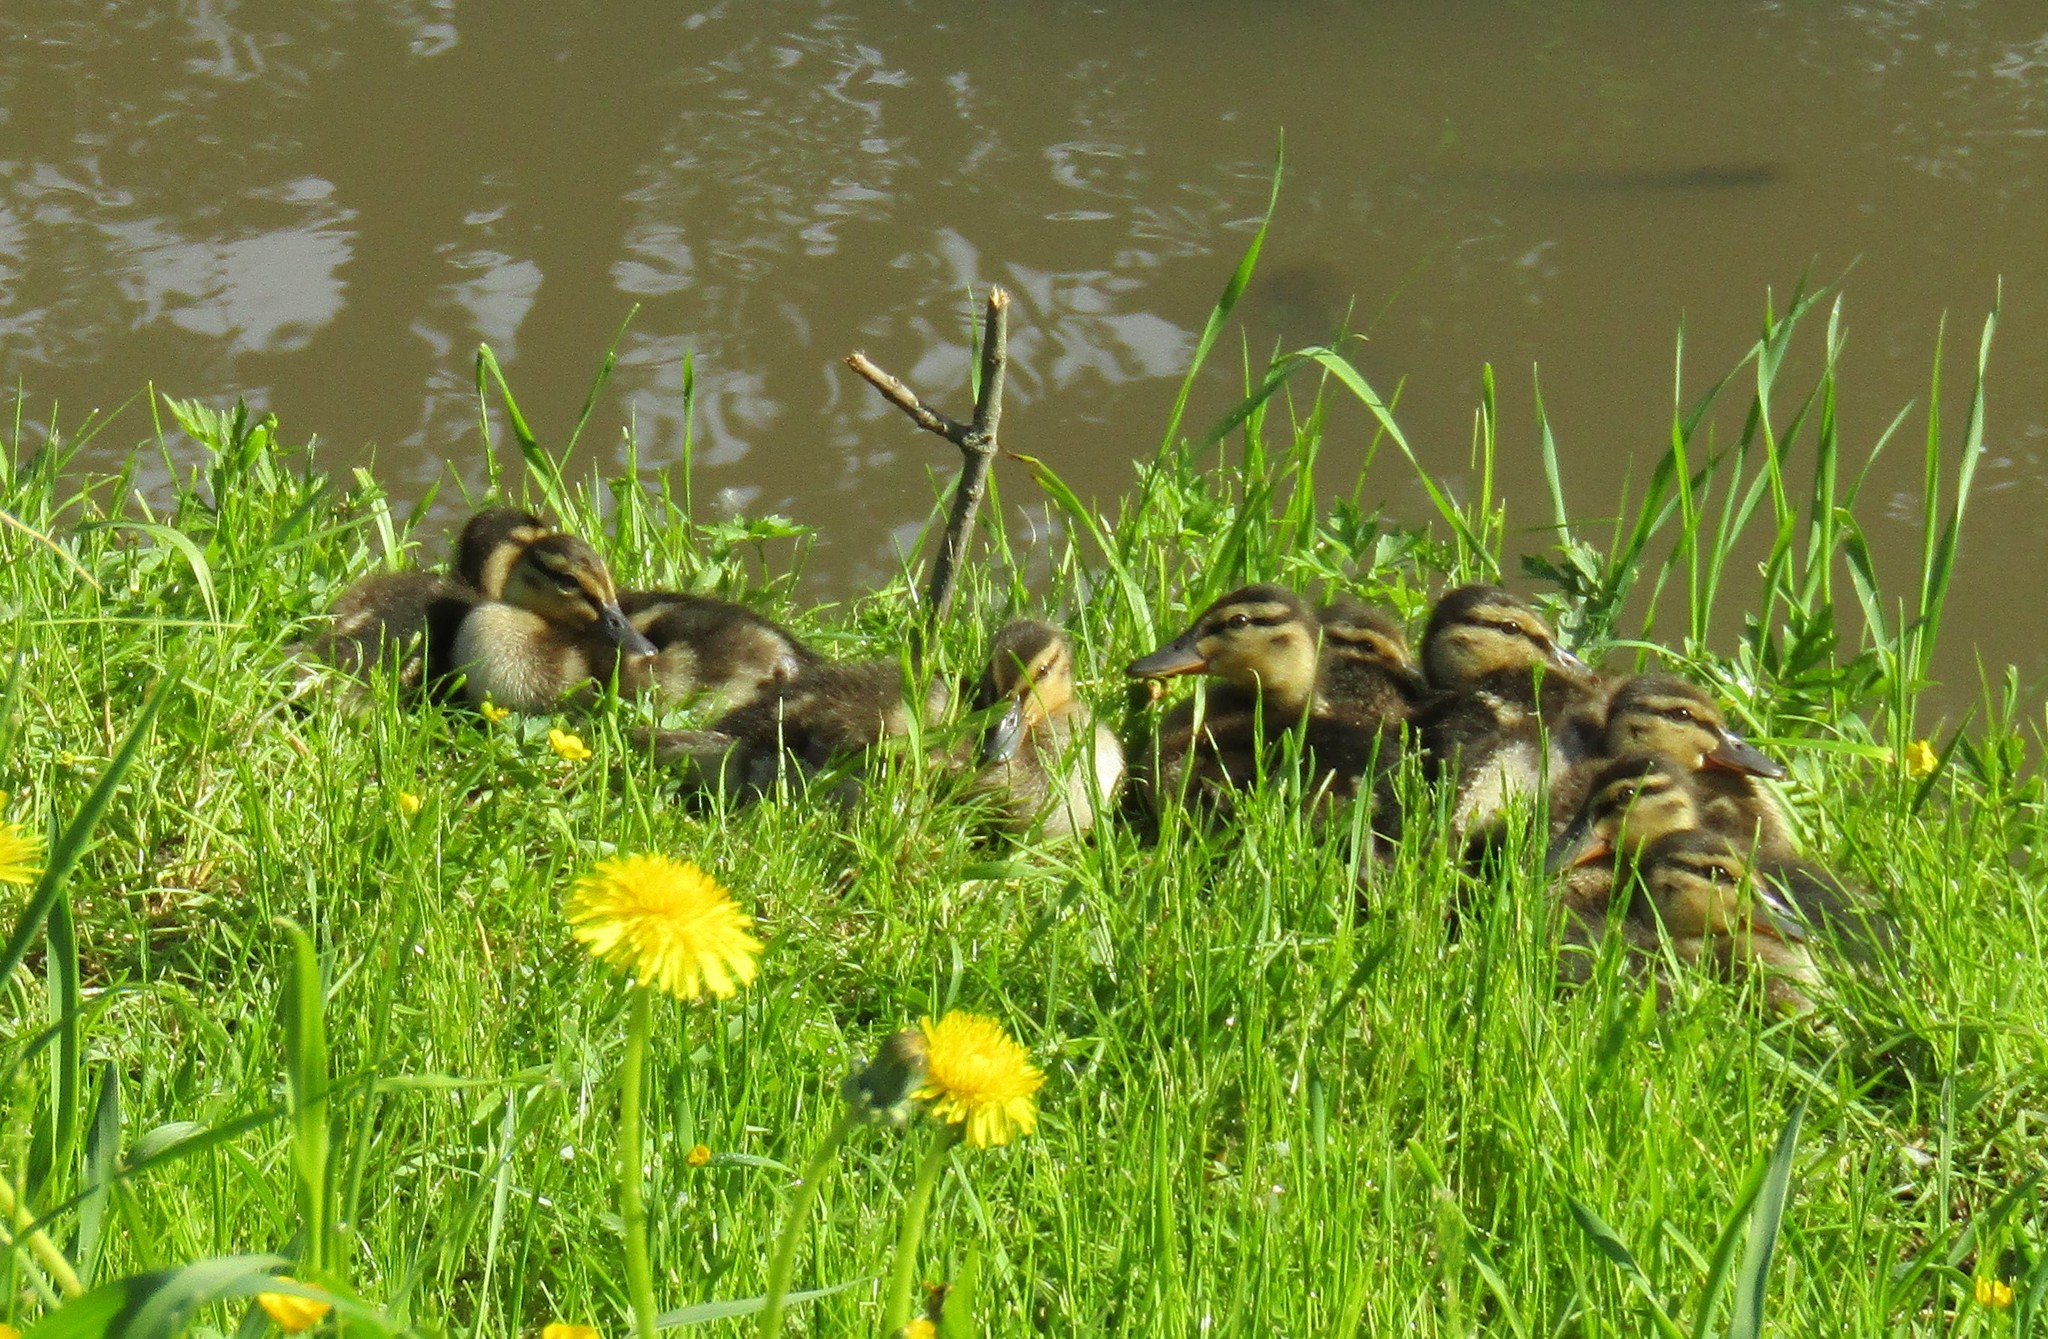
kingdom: Animalia
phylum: Chordata
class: Aves
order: Anseriformes
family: Anatidae
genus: Anas
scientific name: Anas platyrhynchos
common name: Mallard
